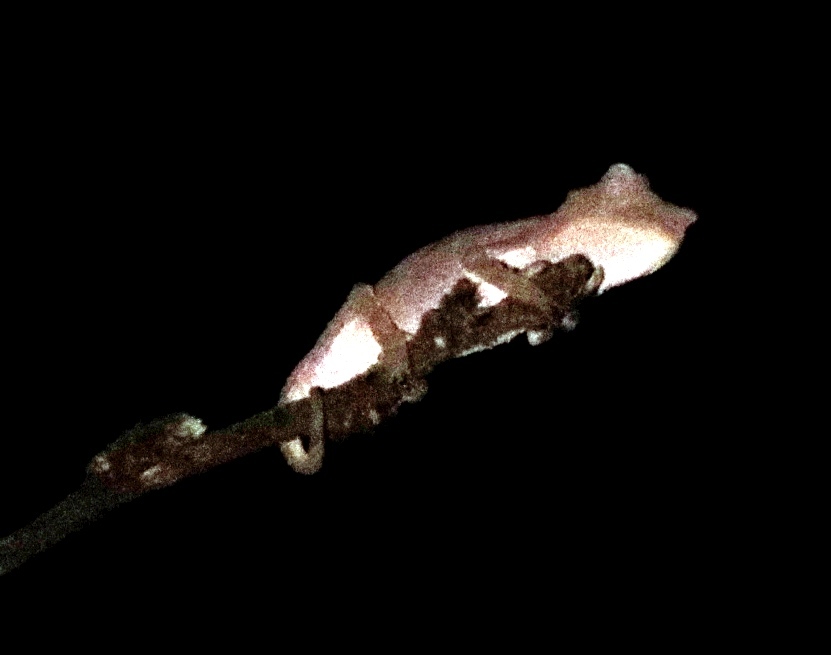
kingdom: Animalia
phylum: Chordata
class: Squamata
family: Chamaeleonidae
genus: Rhampholeon
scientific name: Rhampholeon marshalli
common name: Marshall's african leaf chameleon
